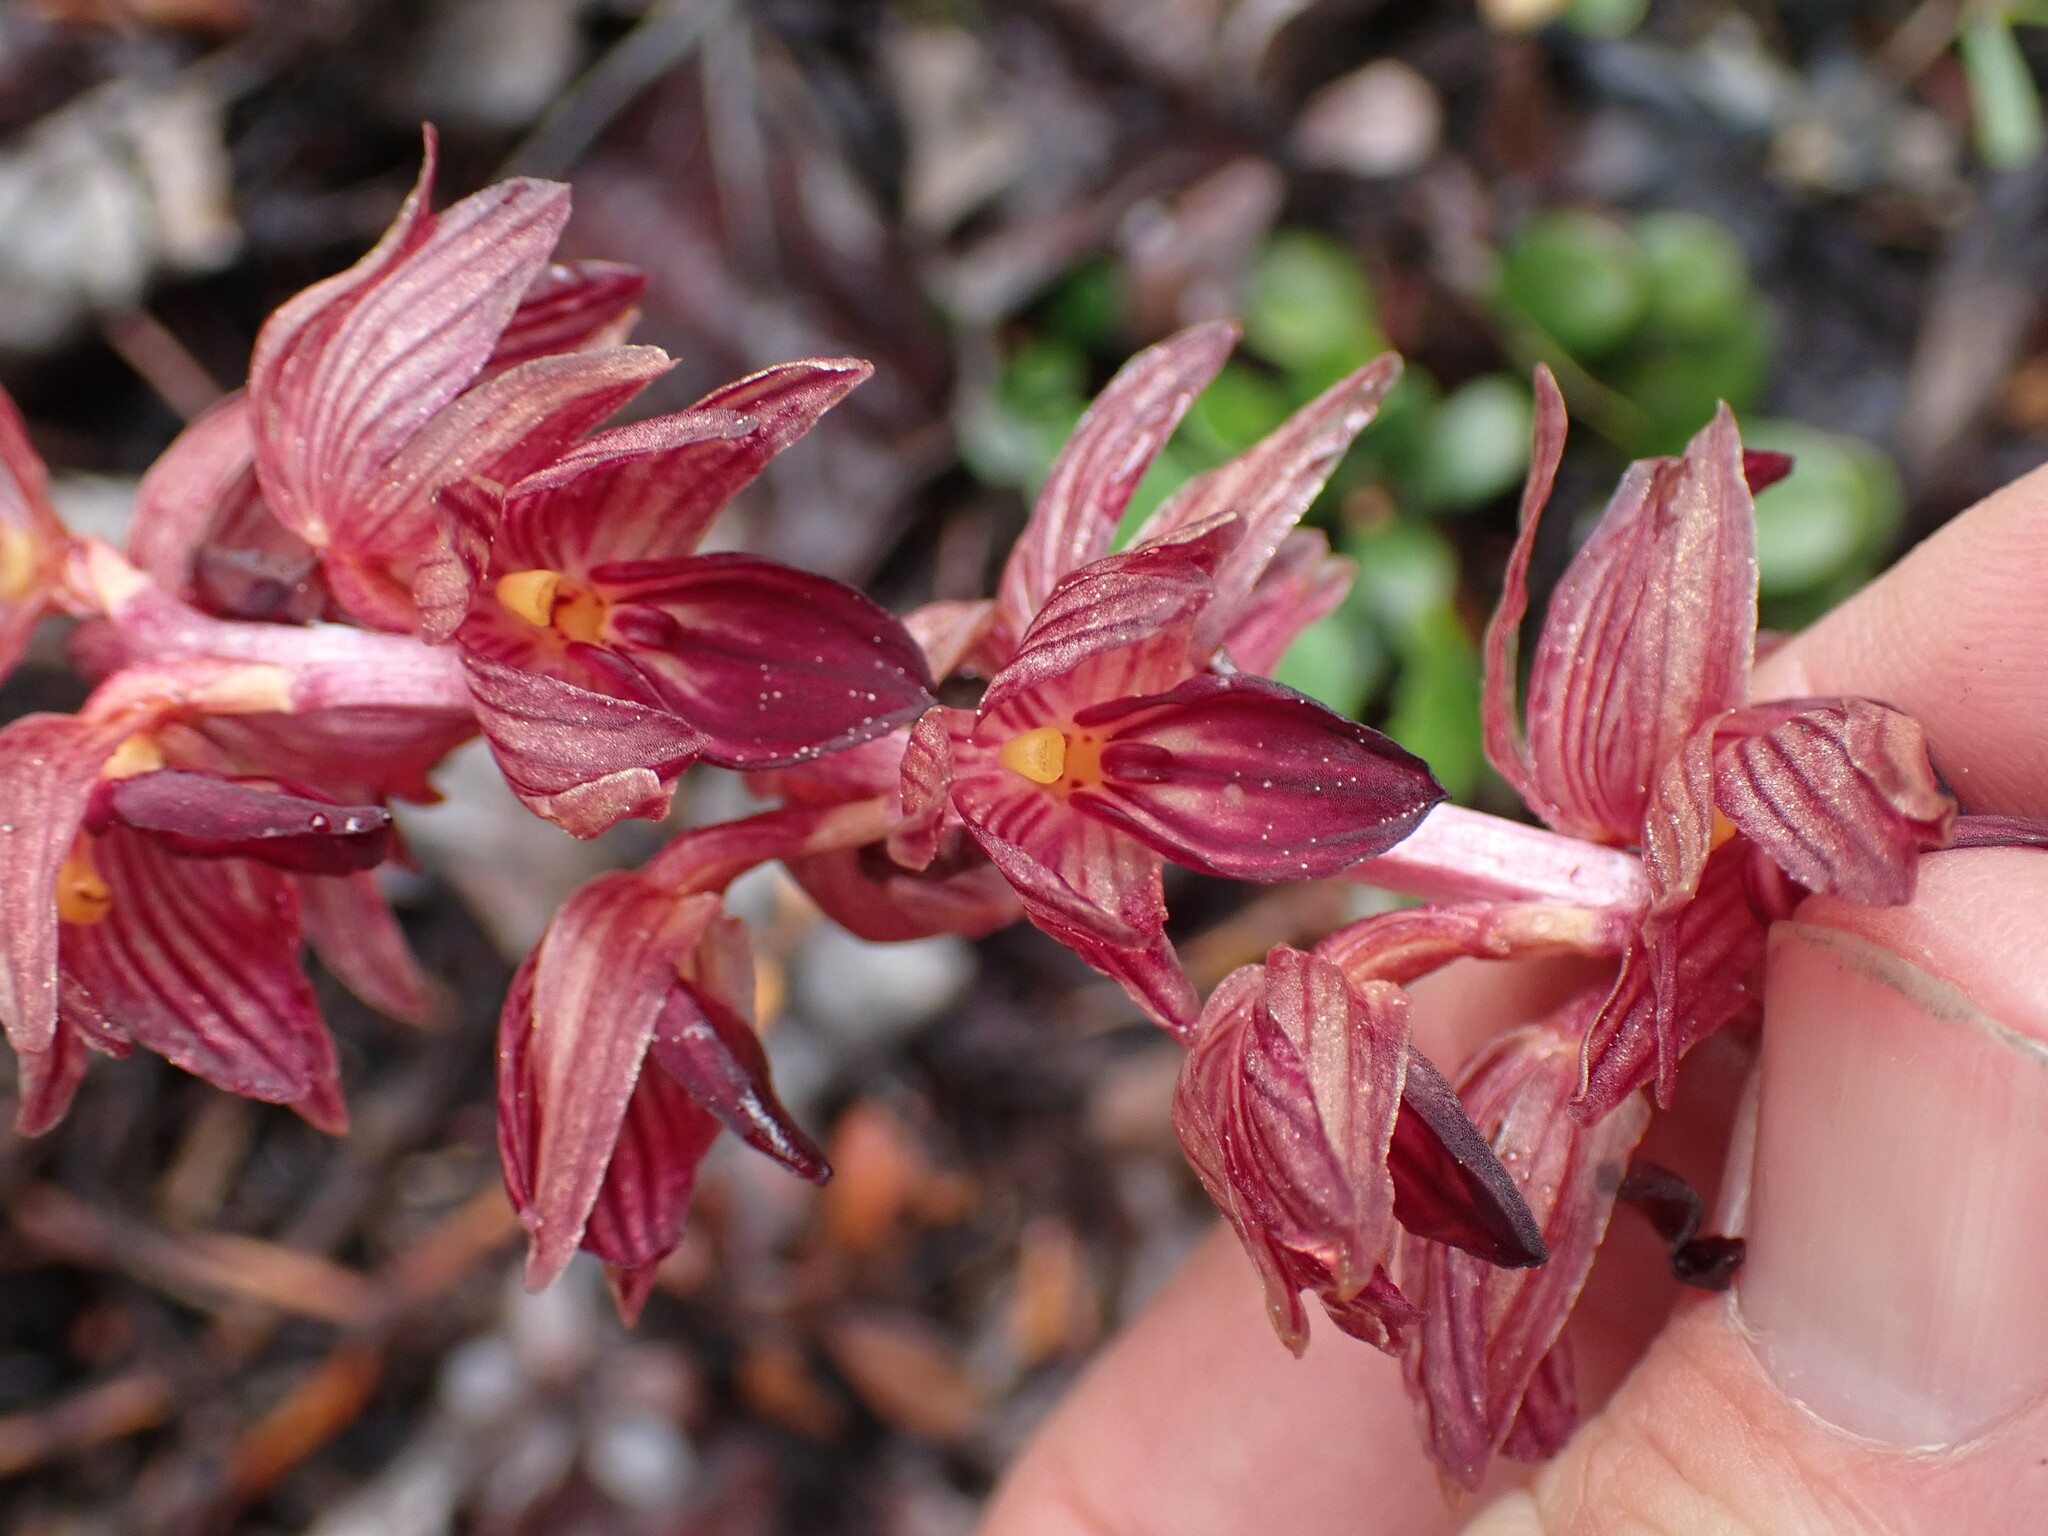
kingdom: Plantae
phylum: Tracheophyta
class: Liliopsida
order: Asparagales
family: Orchidaceae
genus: Corallorhiza
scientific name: Corallorhiza striata
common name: Hooded coralroot
